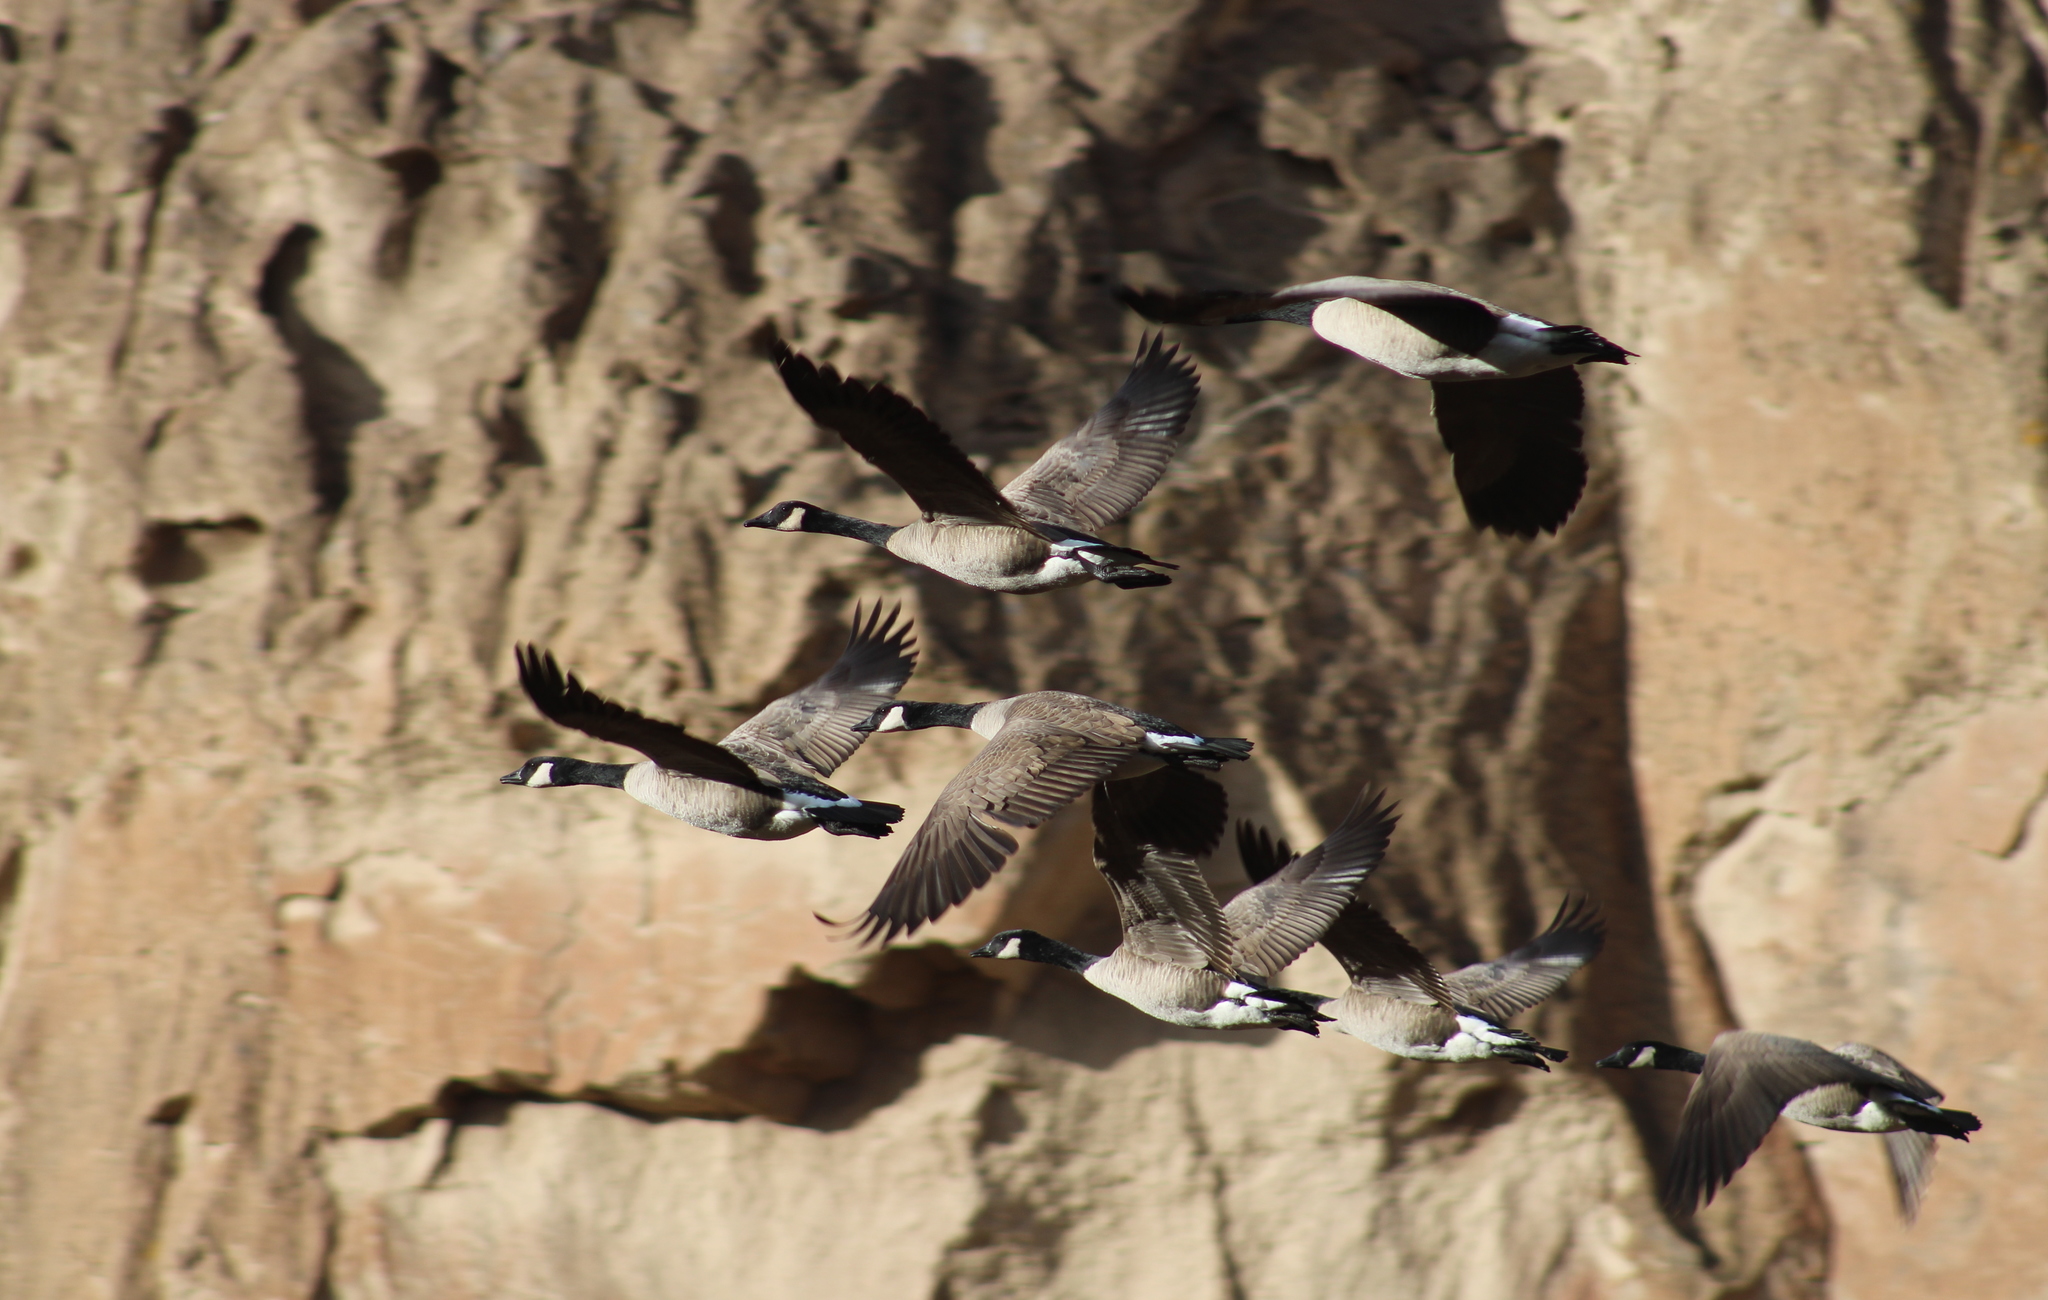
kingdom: Animalia
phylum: Chordata
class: Aves
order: Anseriformes
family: Anatidae
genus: Branta
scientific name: Branta canadensis
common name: Canada goose
